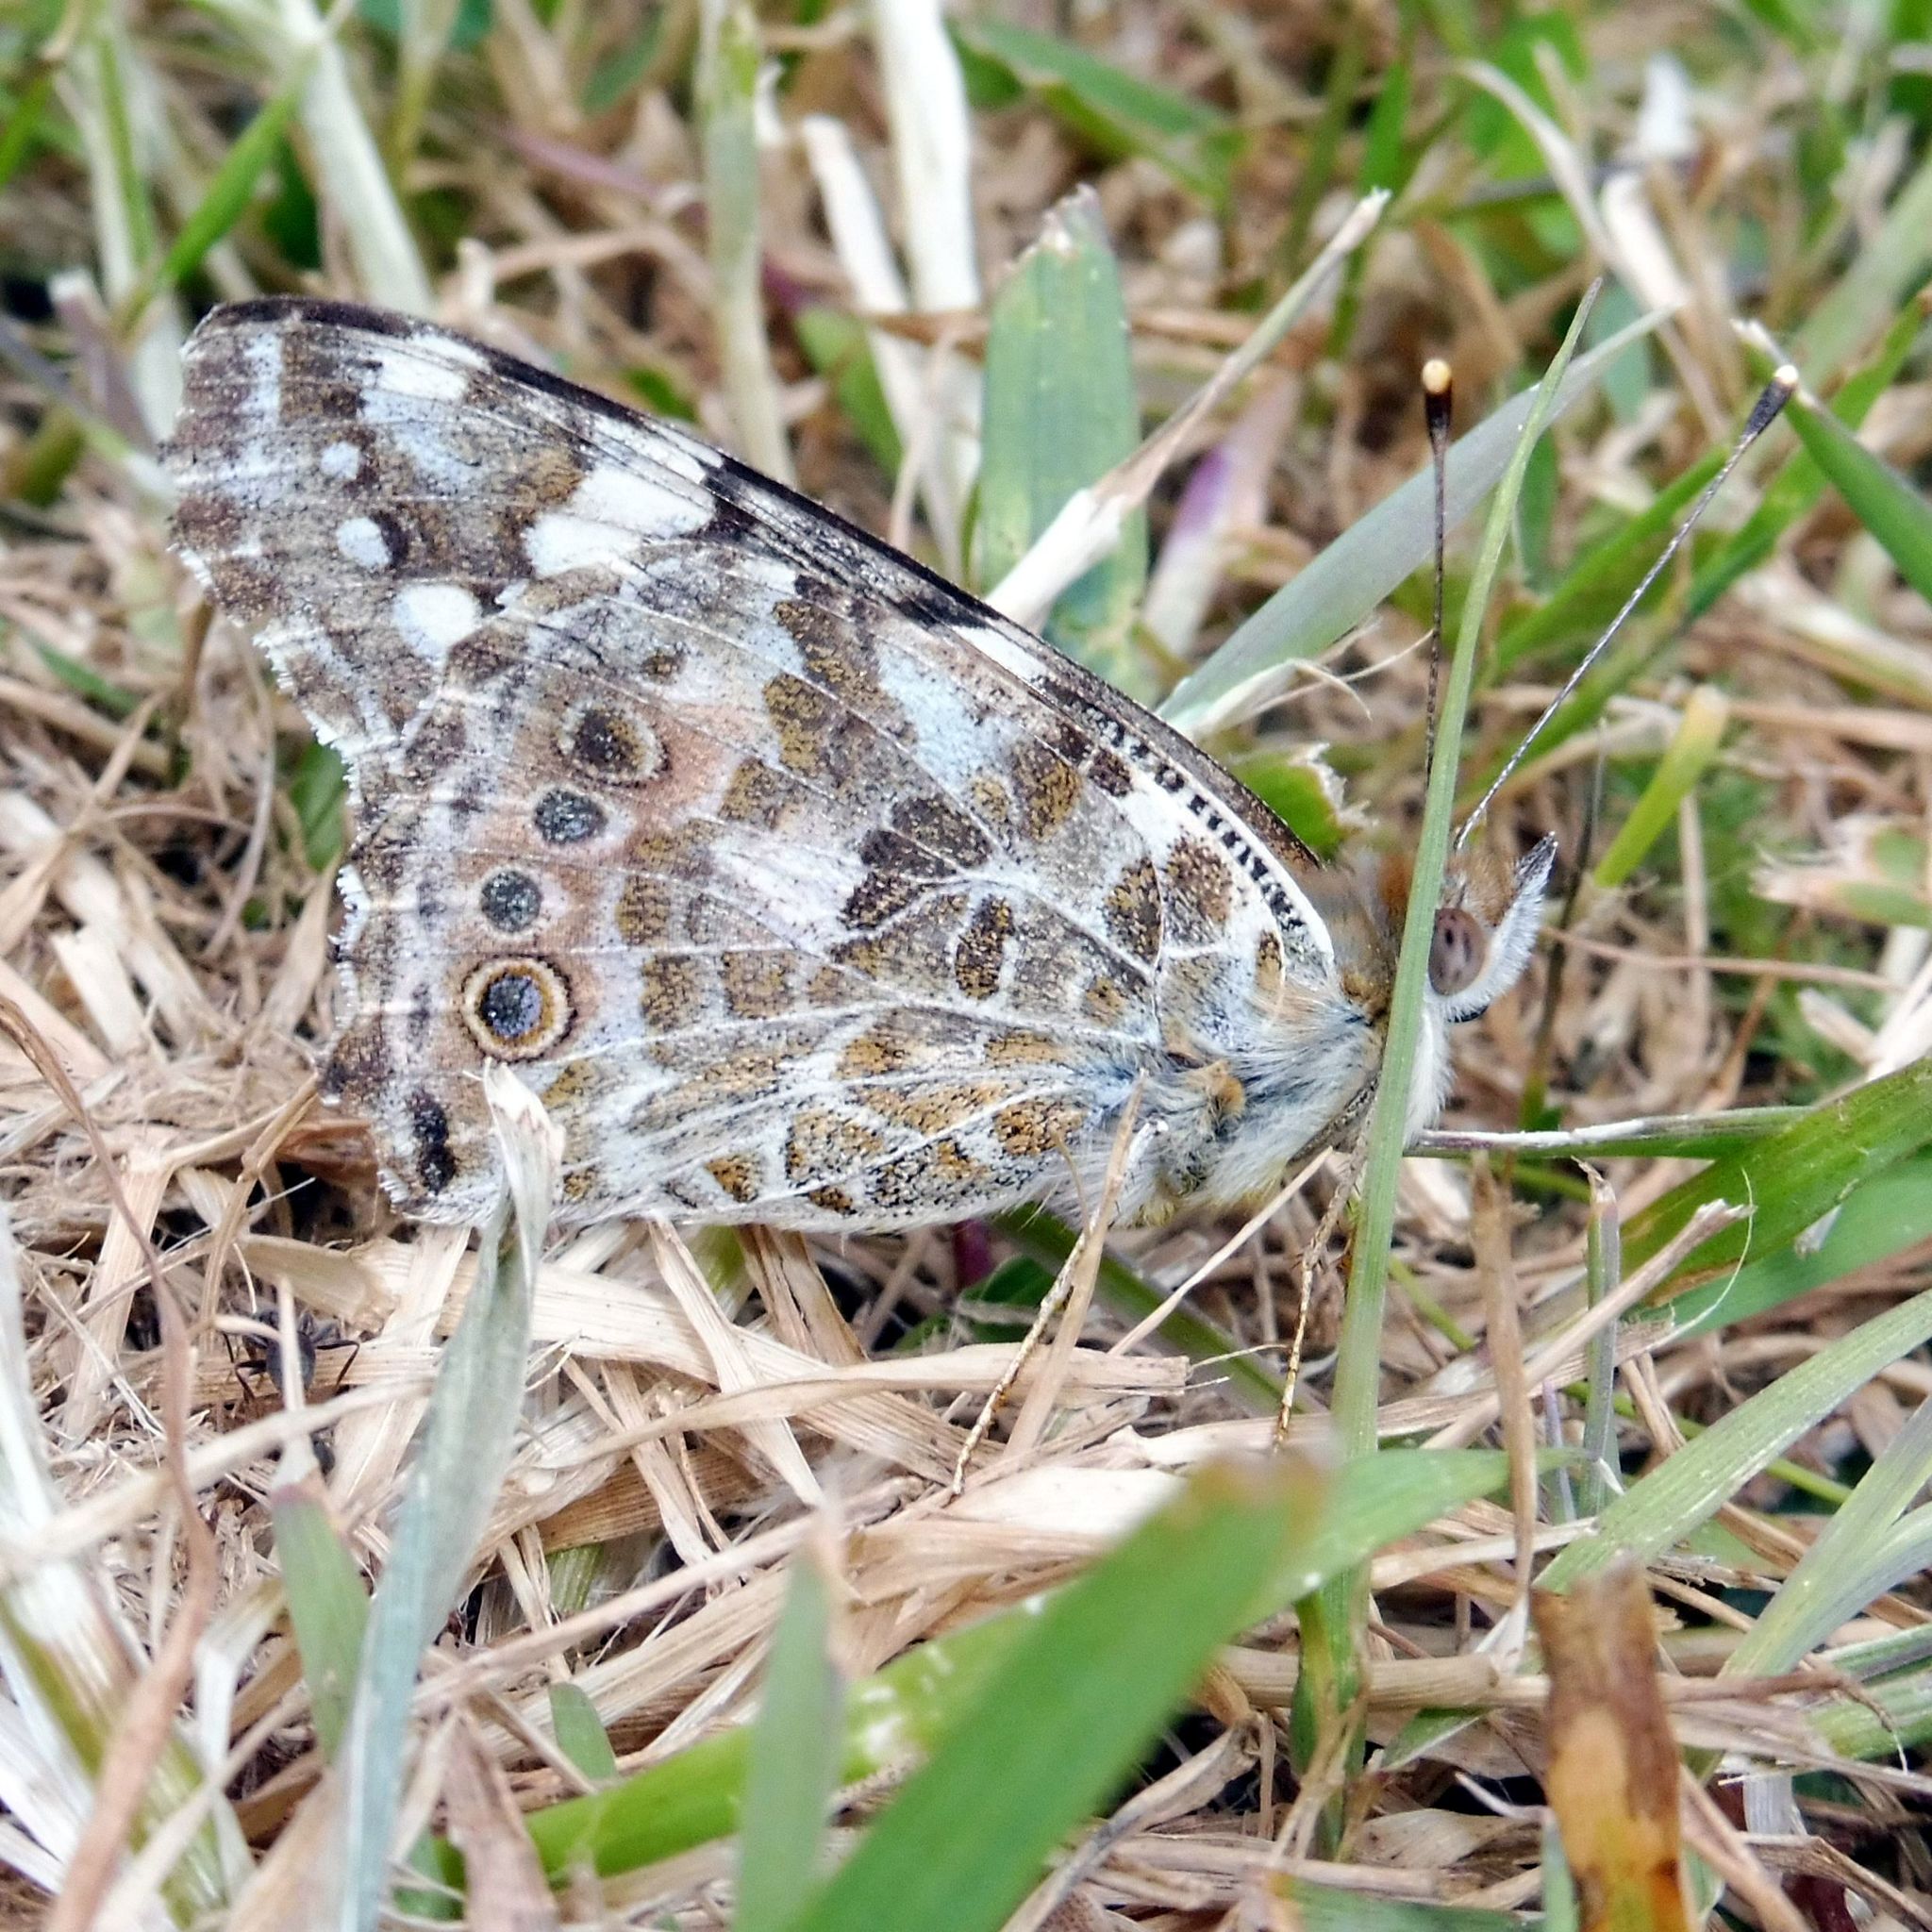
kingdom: Animalia
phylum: Arthropoda
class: Insecta
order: Lepidoptera
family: Nymphalidae
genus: Vanessa
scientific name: Vanessa cardui
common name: Painted lady
